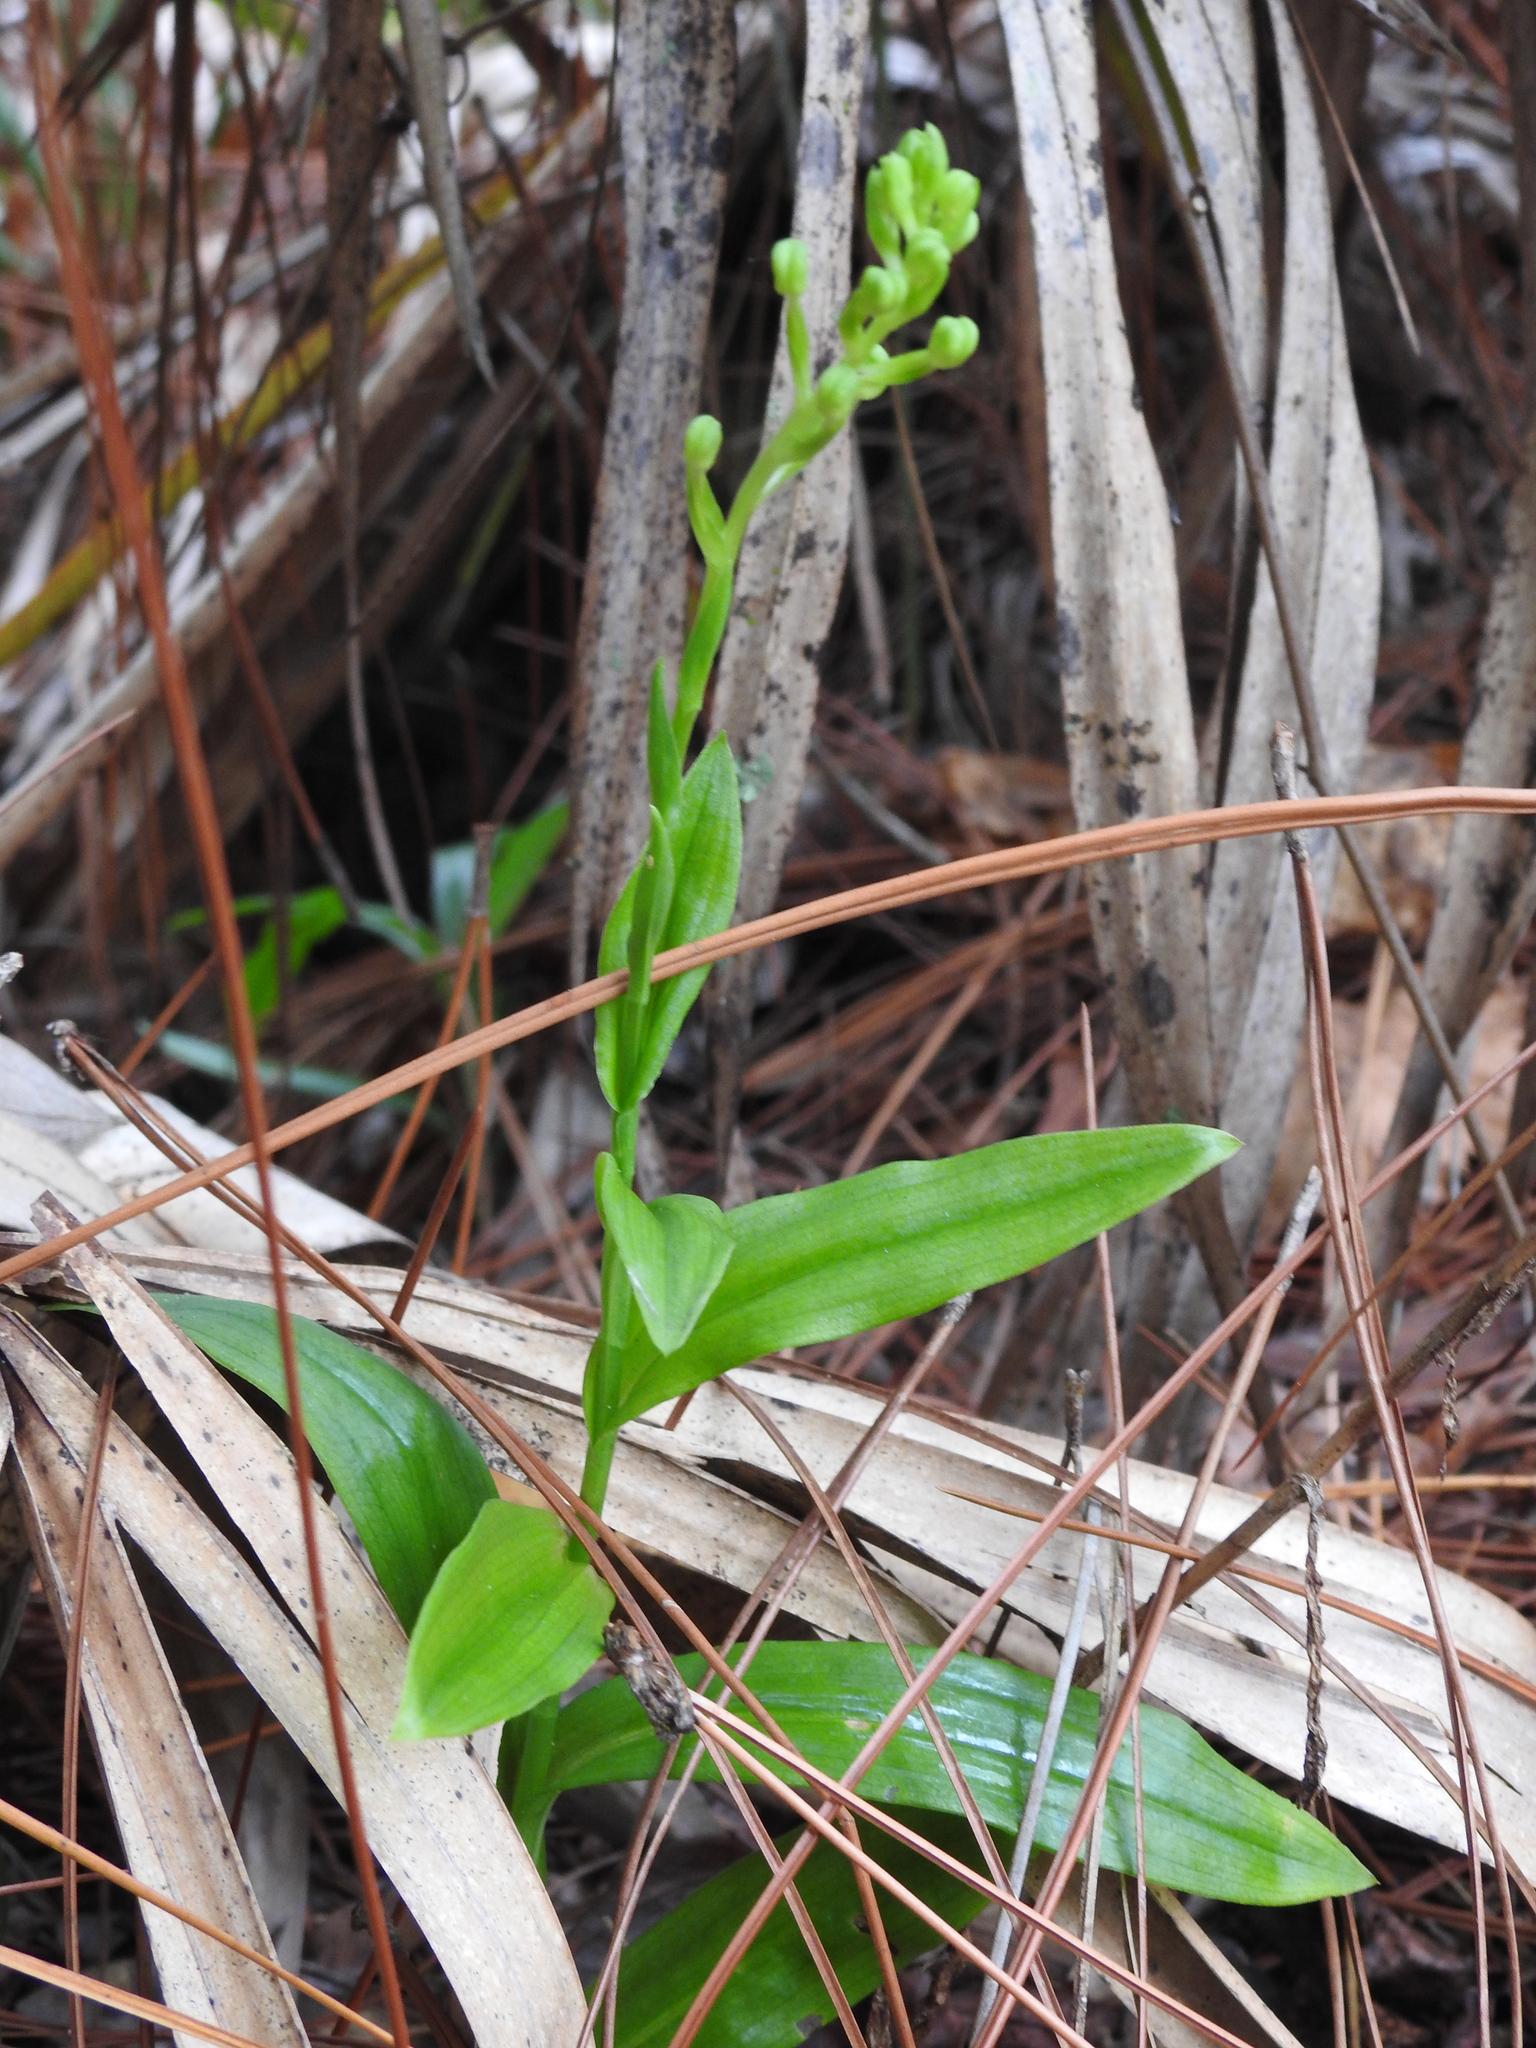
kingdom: Plantae
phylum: Tracheophyta
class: Liliopsida
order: Asparagales
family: Orchidaceae
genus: Habenaria
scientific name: Habenaria floribunda
